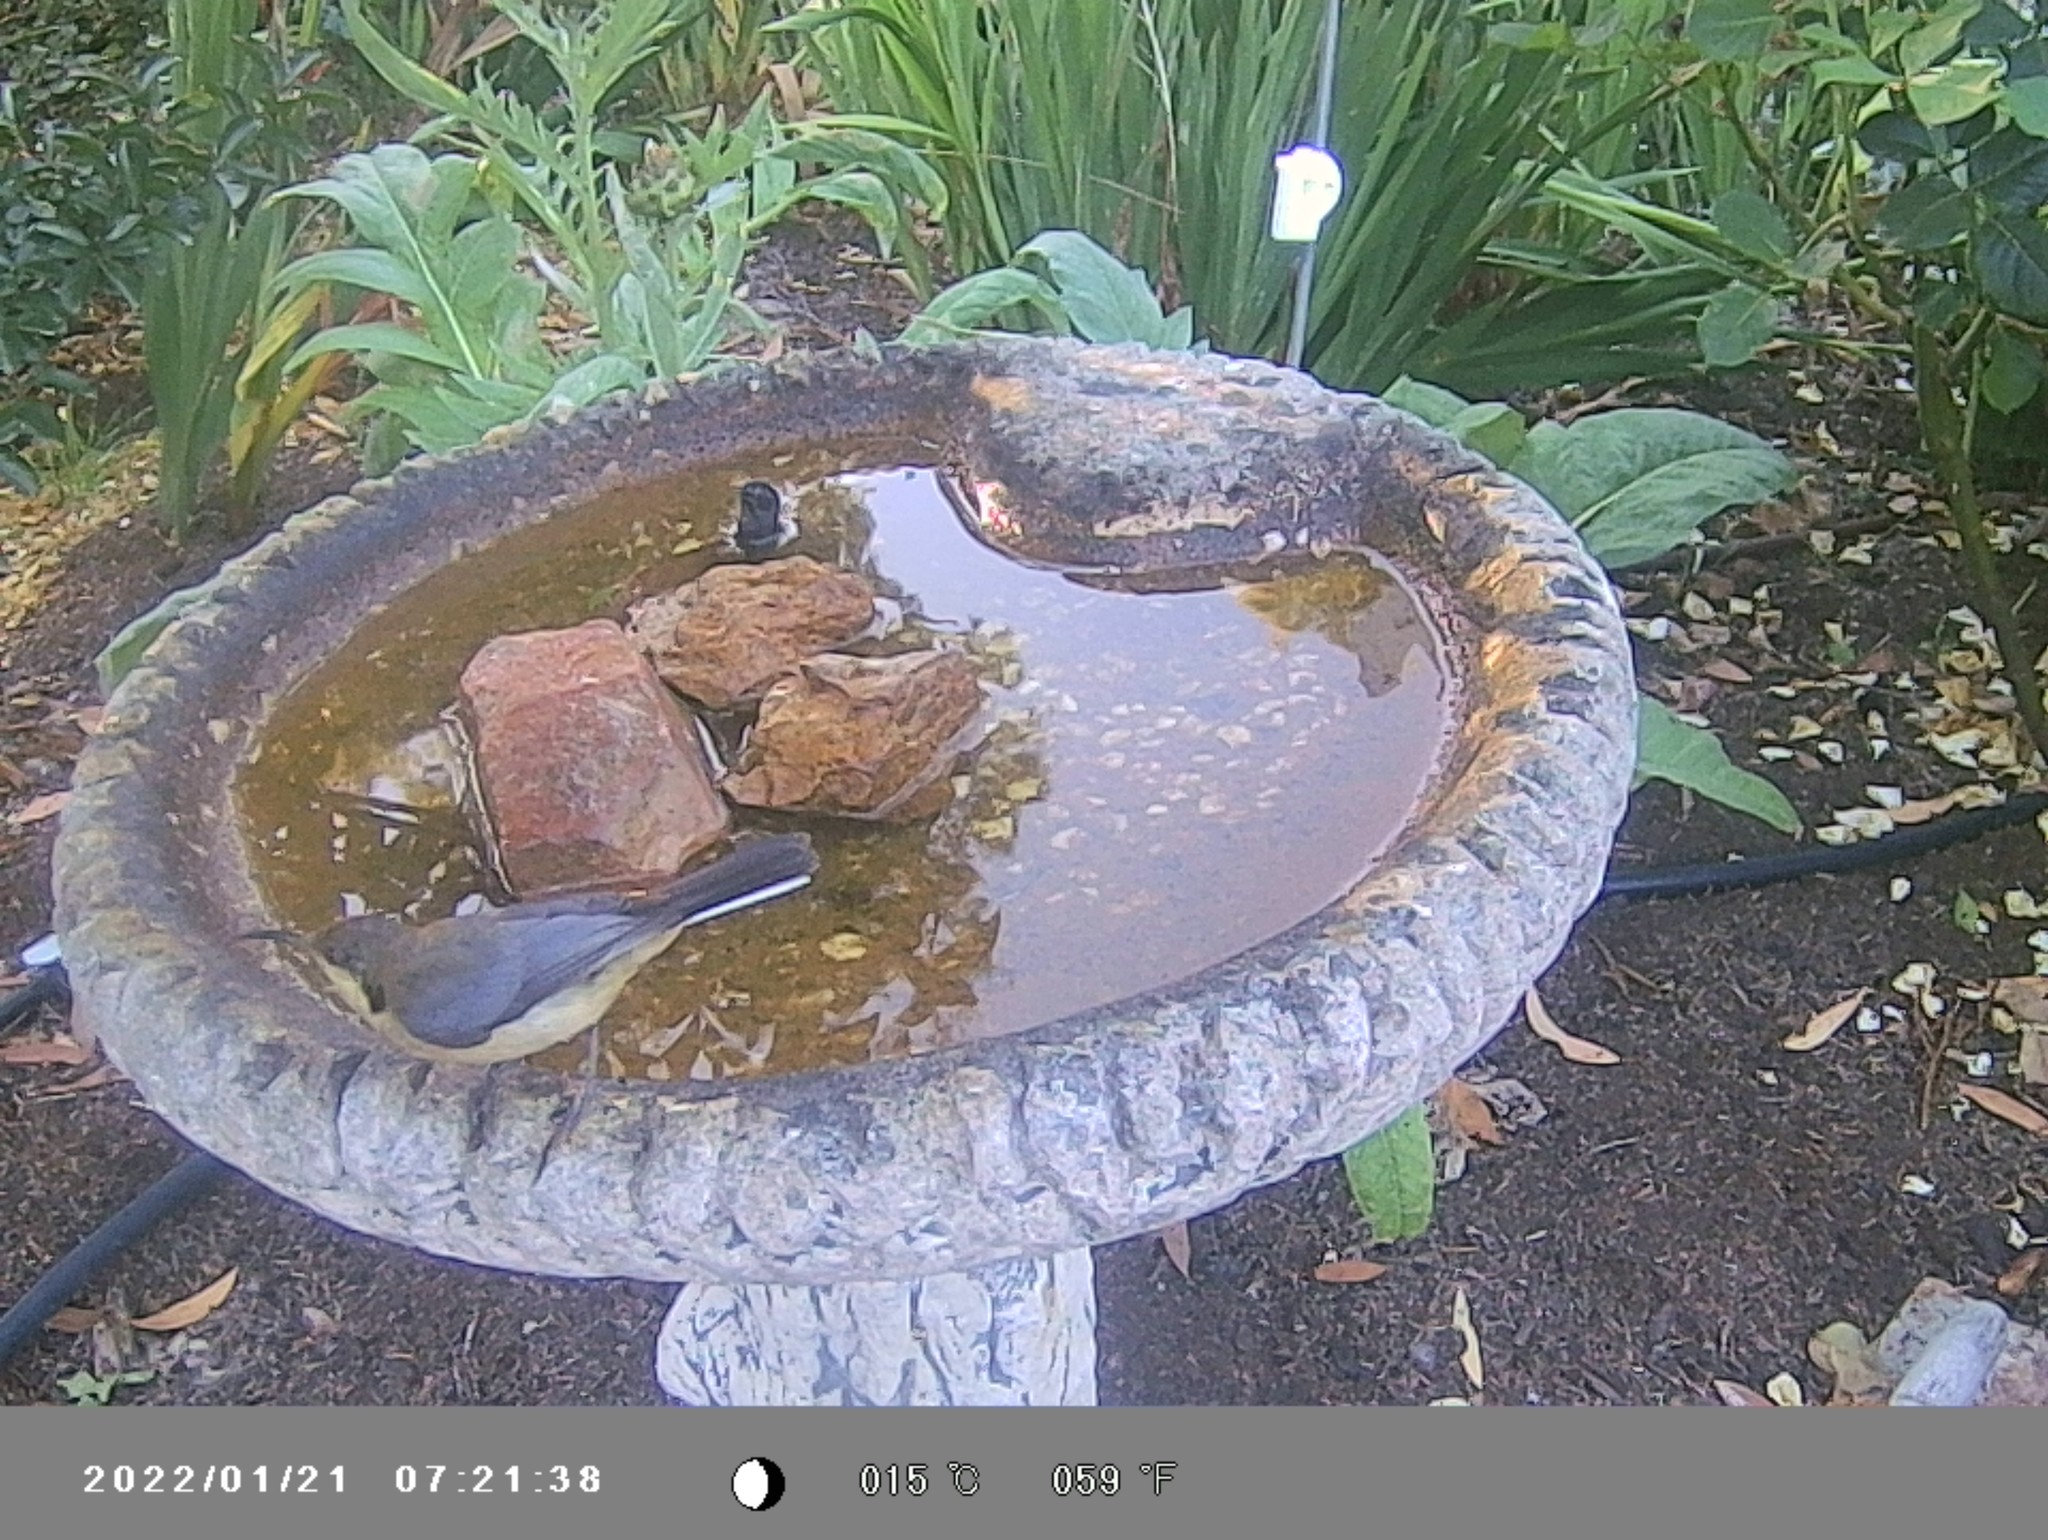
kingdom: Animalia
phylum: Chordata
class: Aves
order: Passeriformes
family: Meliphagidae
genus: Acanthorhynchus
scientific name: Acanthorhynchus tenuirostris
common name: Eastern spinebill
